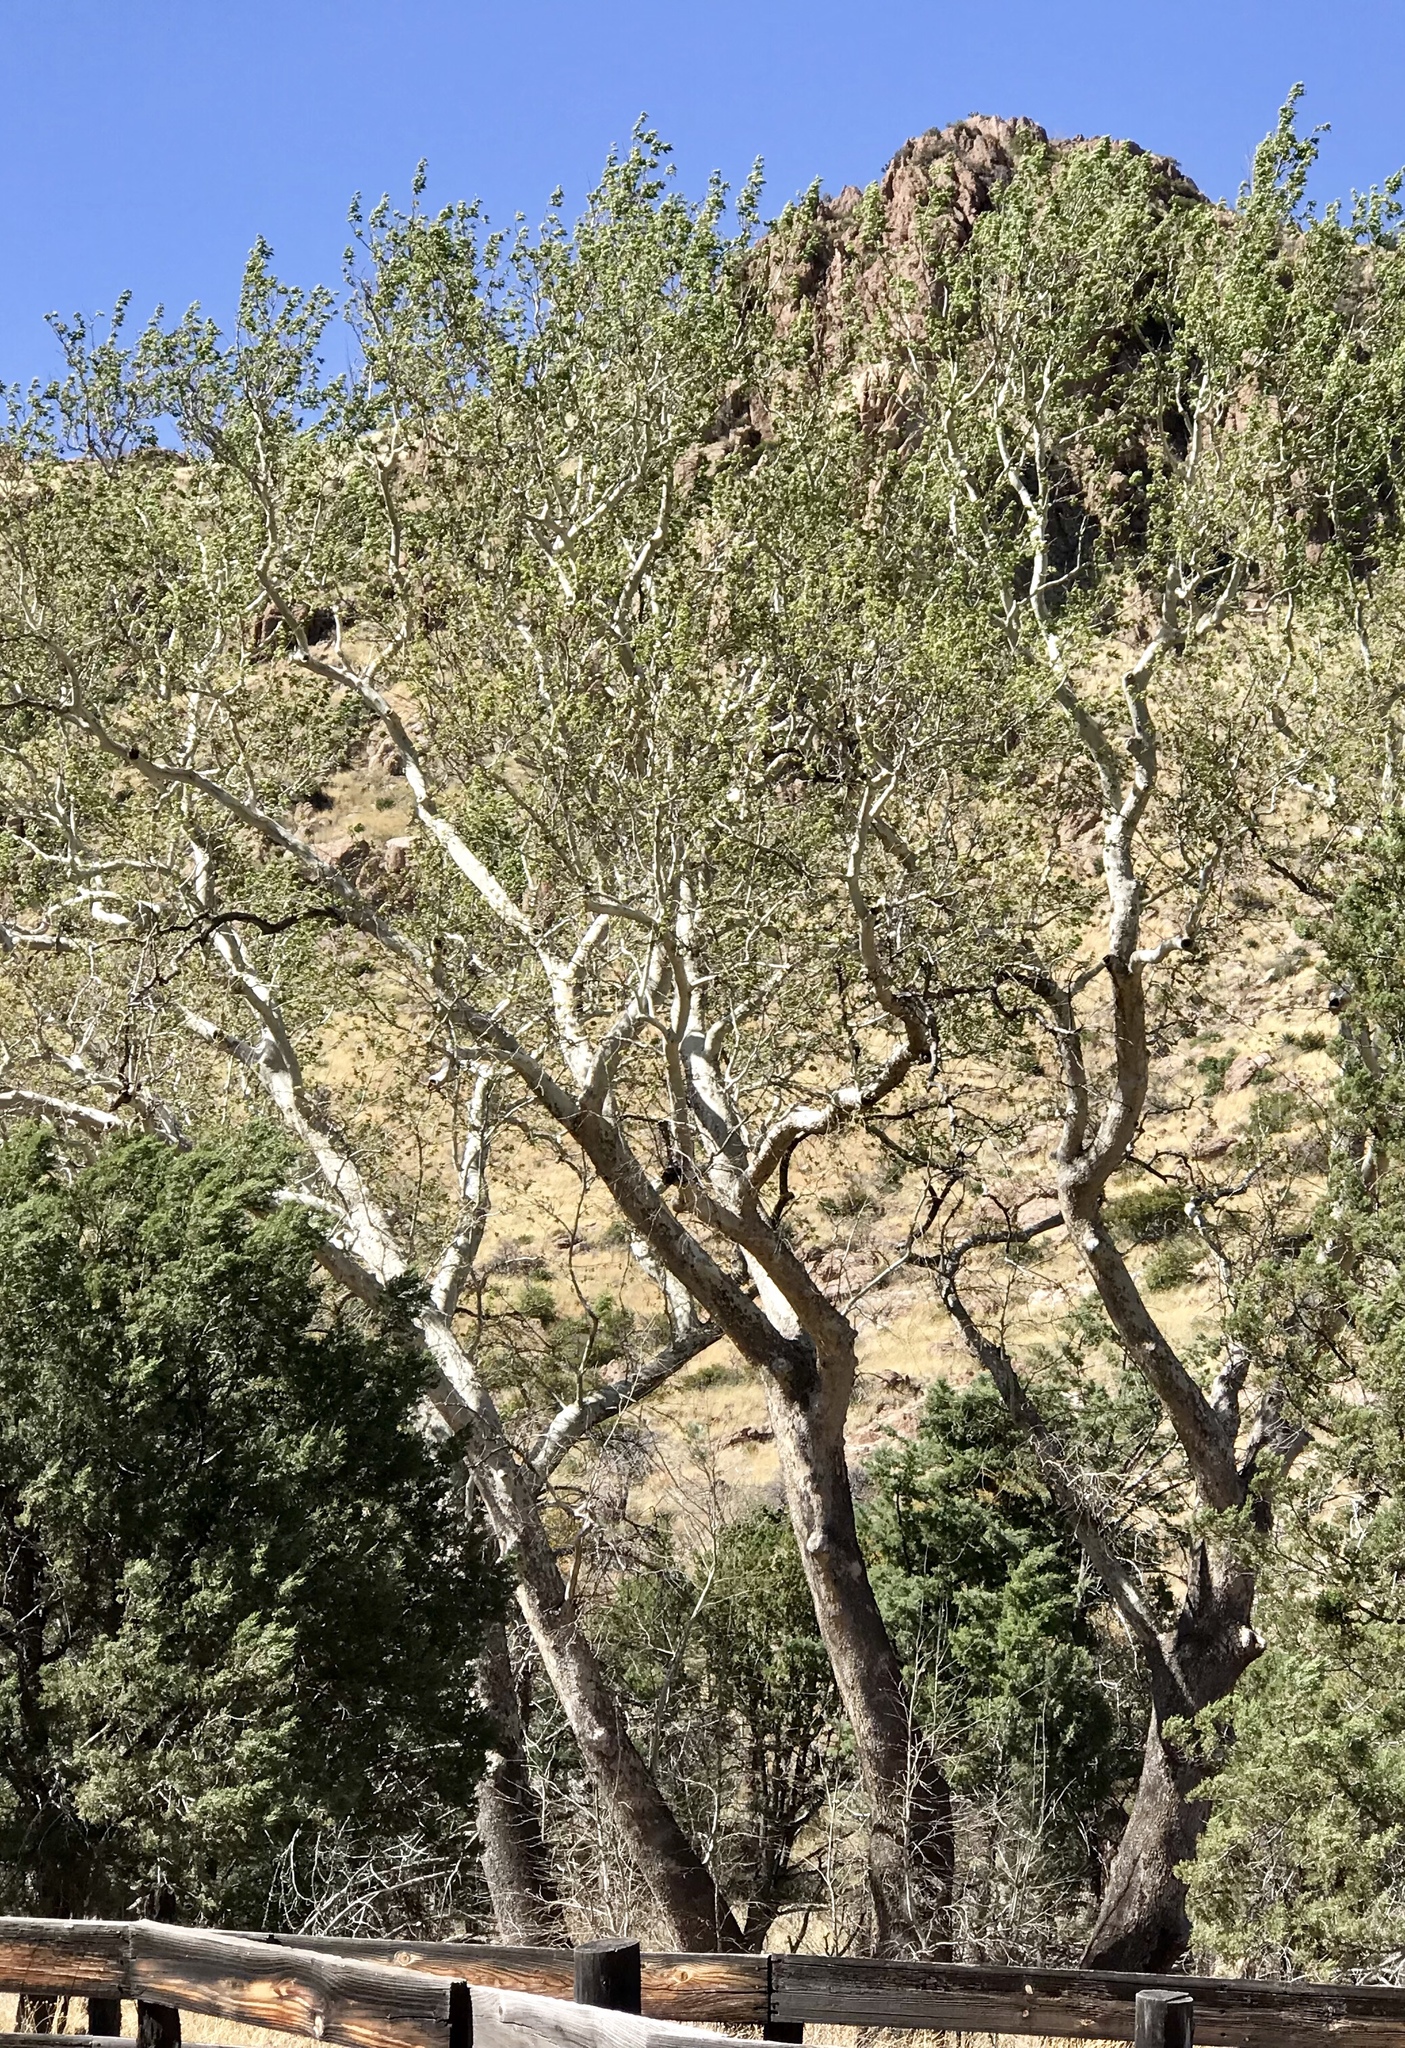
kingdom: Plantae
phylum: Tracheophyta
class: Magnoliopsida
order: Proteales
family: Platanaceae
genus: Platanus
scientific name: Platanus wrightii
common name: Arizona sycamore
